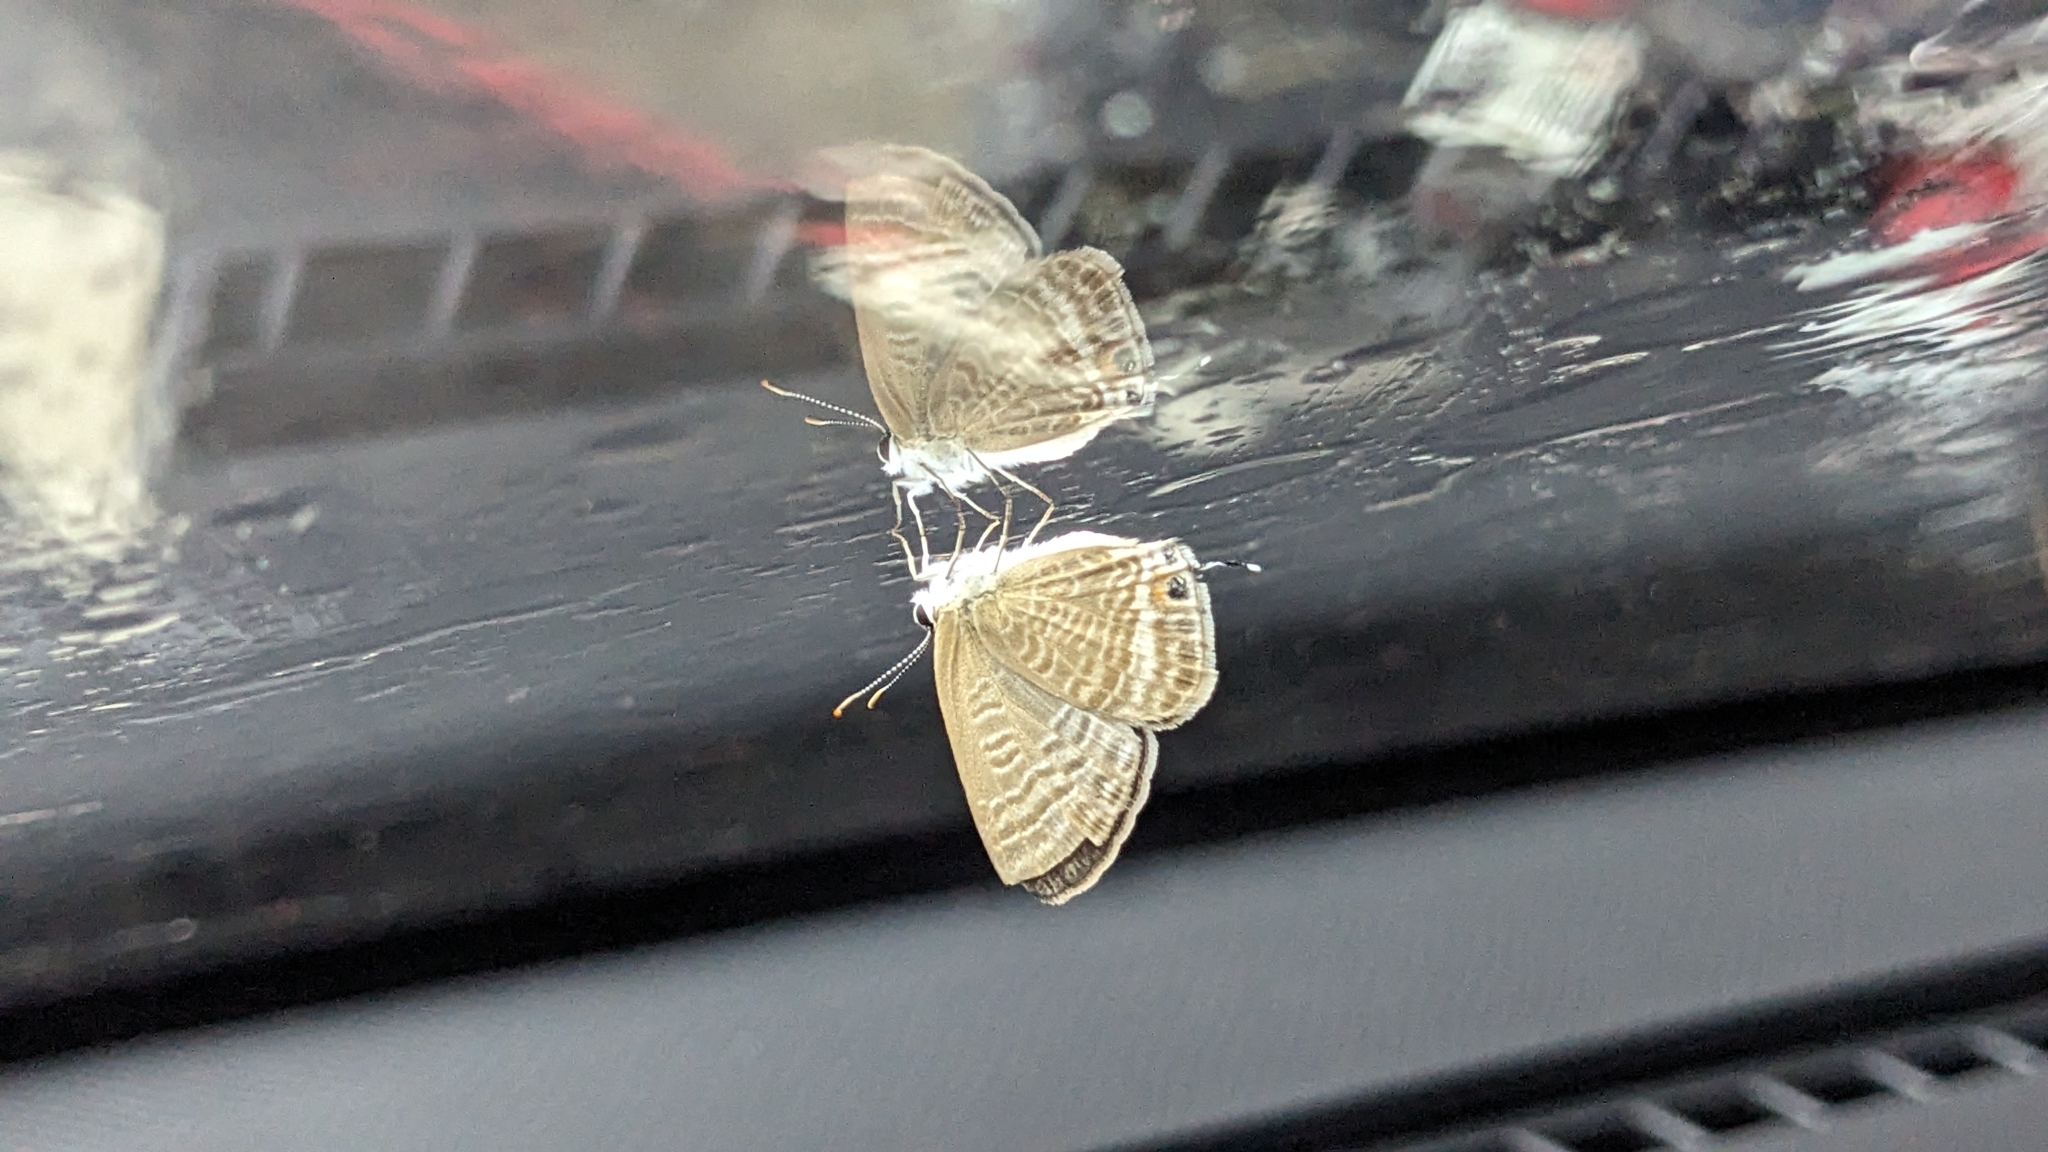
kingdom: Animalia
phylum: Arthropoda
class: Insecta
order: Lepidoptera
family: Lycaenidae
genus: Lampides
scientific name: Lampides boeticus
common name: Long-tailed blue
